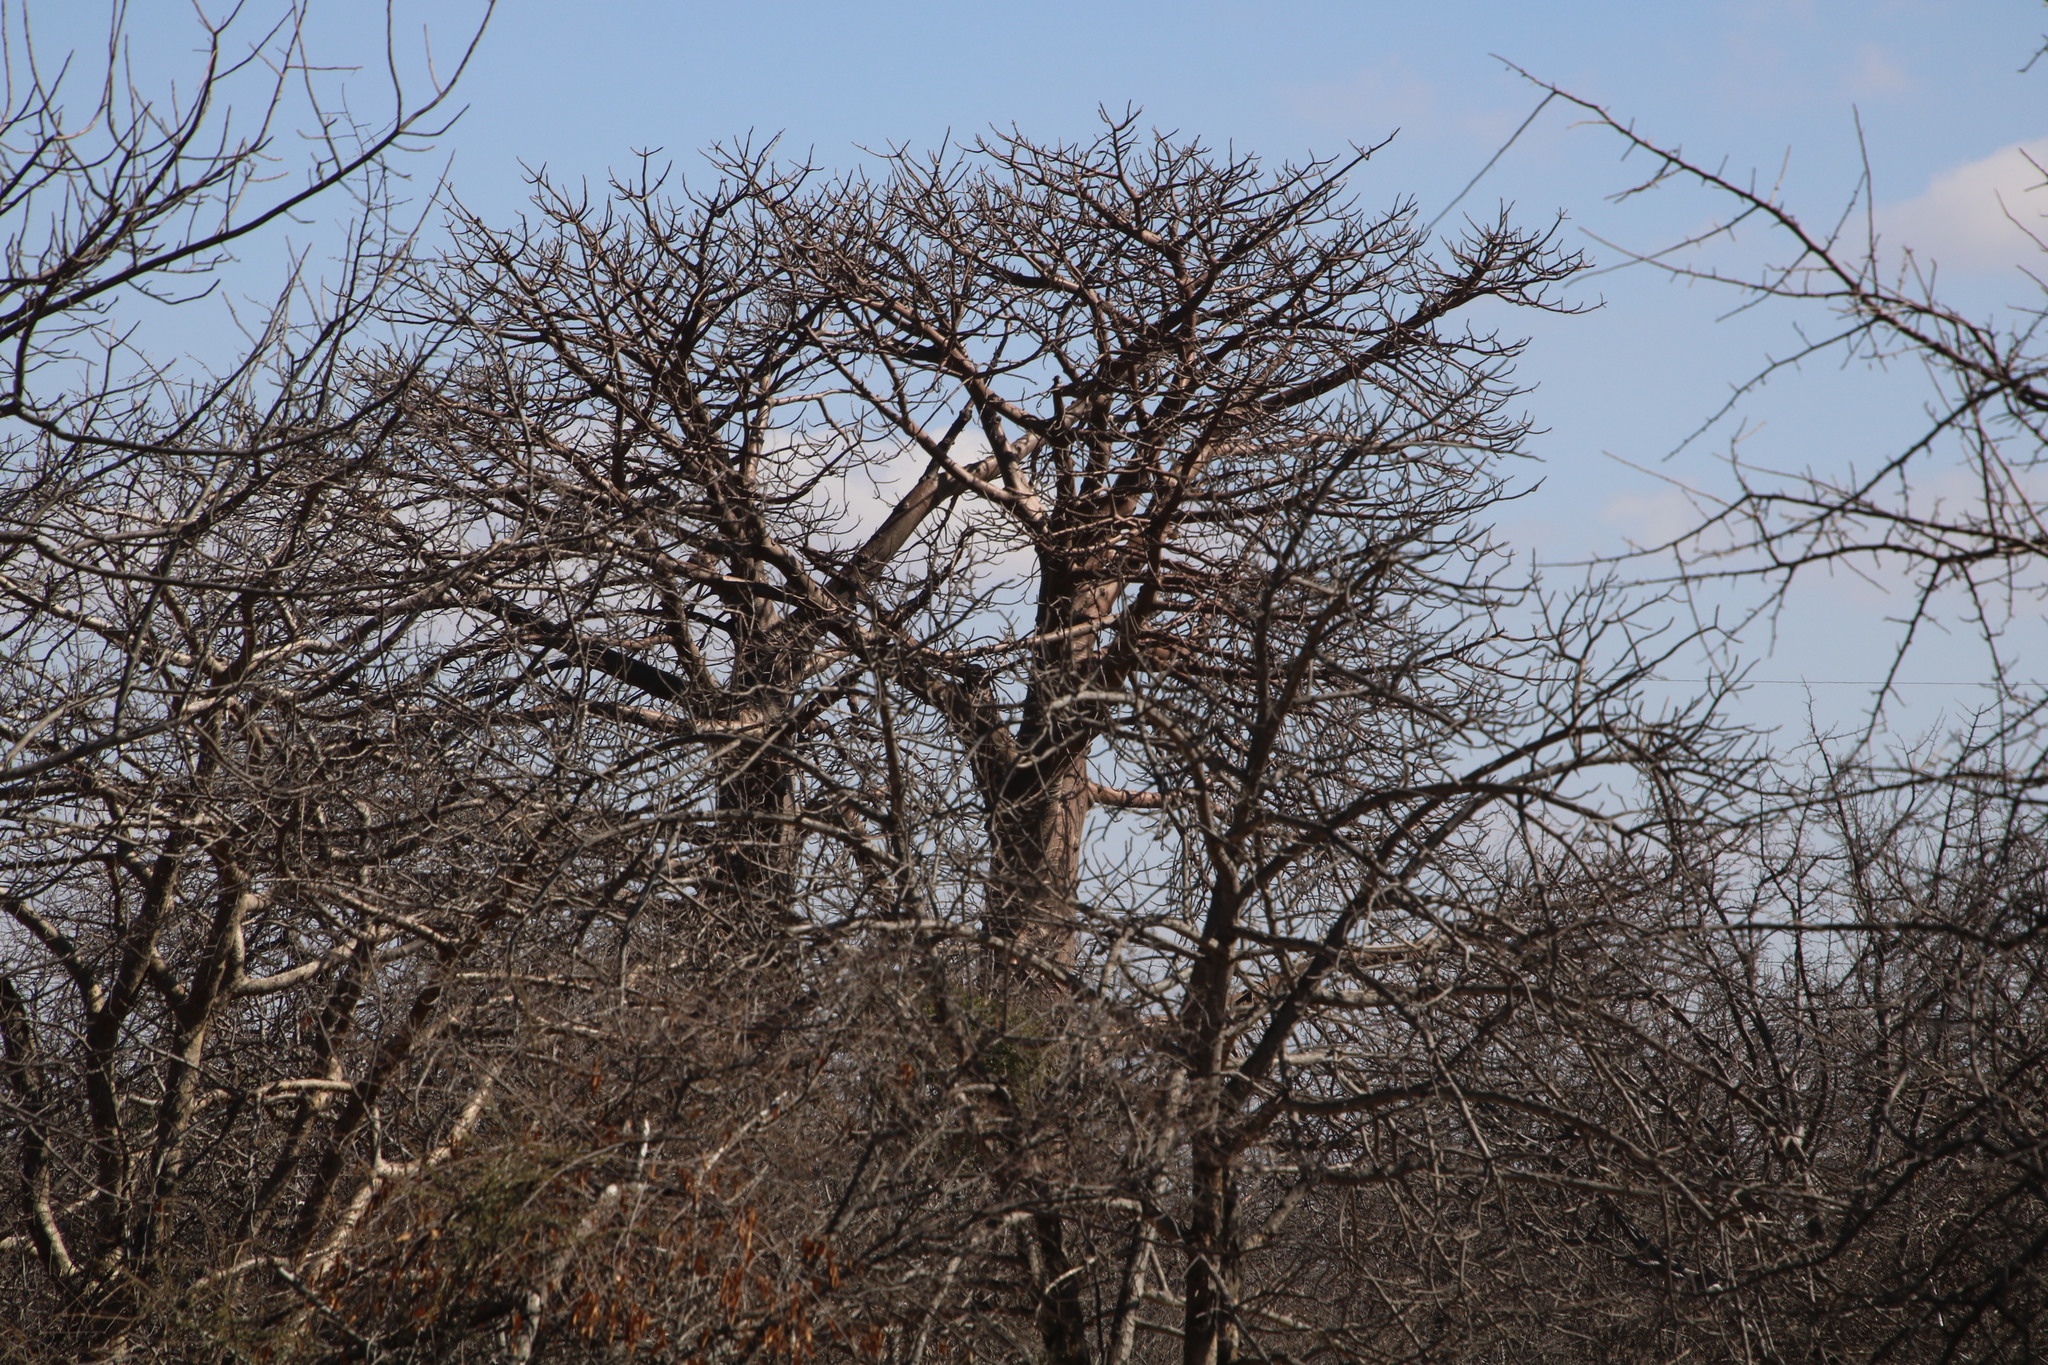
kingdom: Plantae
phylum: Tracheophyta
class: Magnoliopsida
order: Malvales
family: Malvaceae
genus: Adansonia
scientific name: Adansonia digitata
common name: Dead-rat-tree
